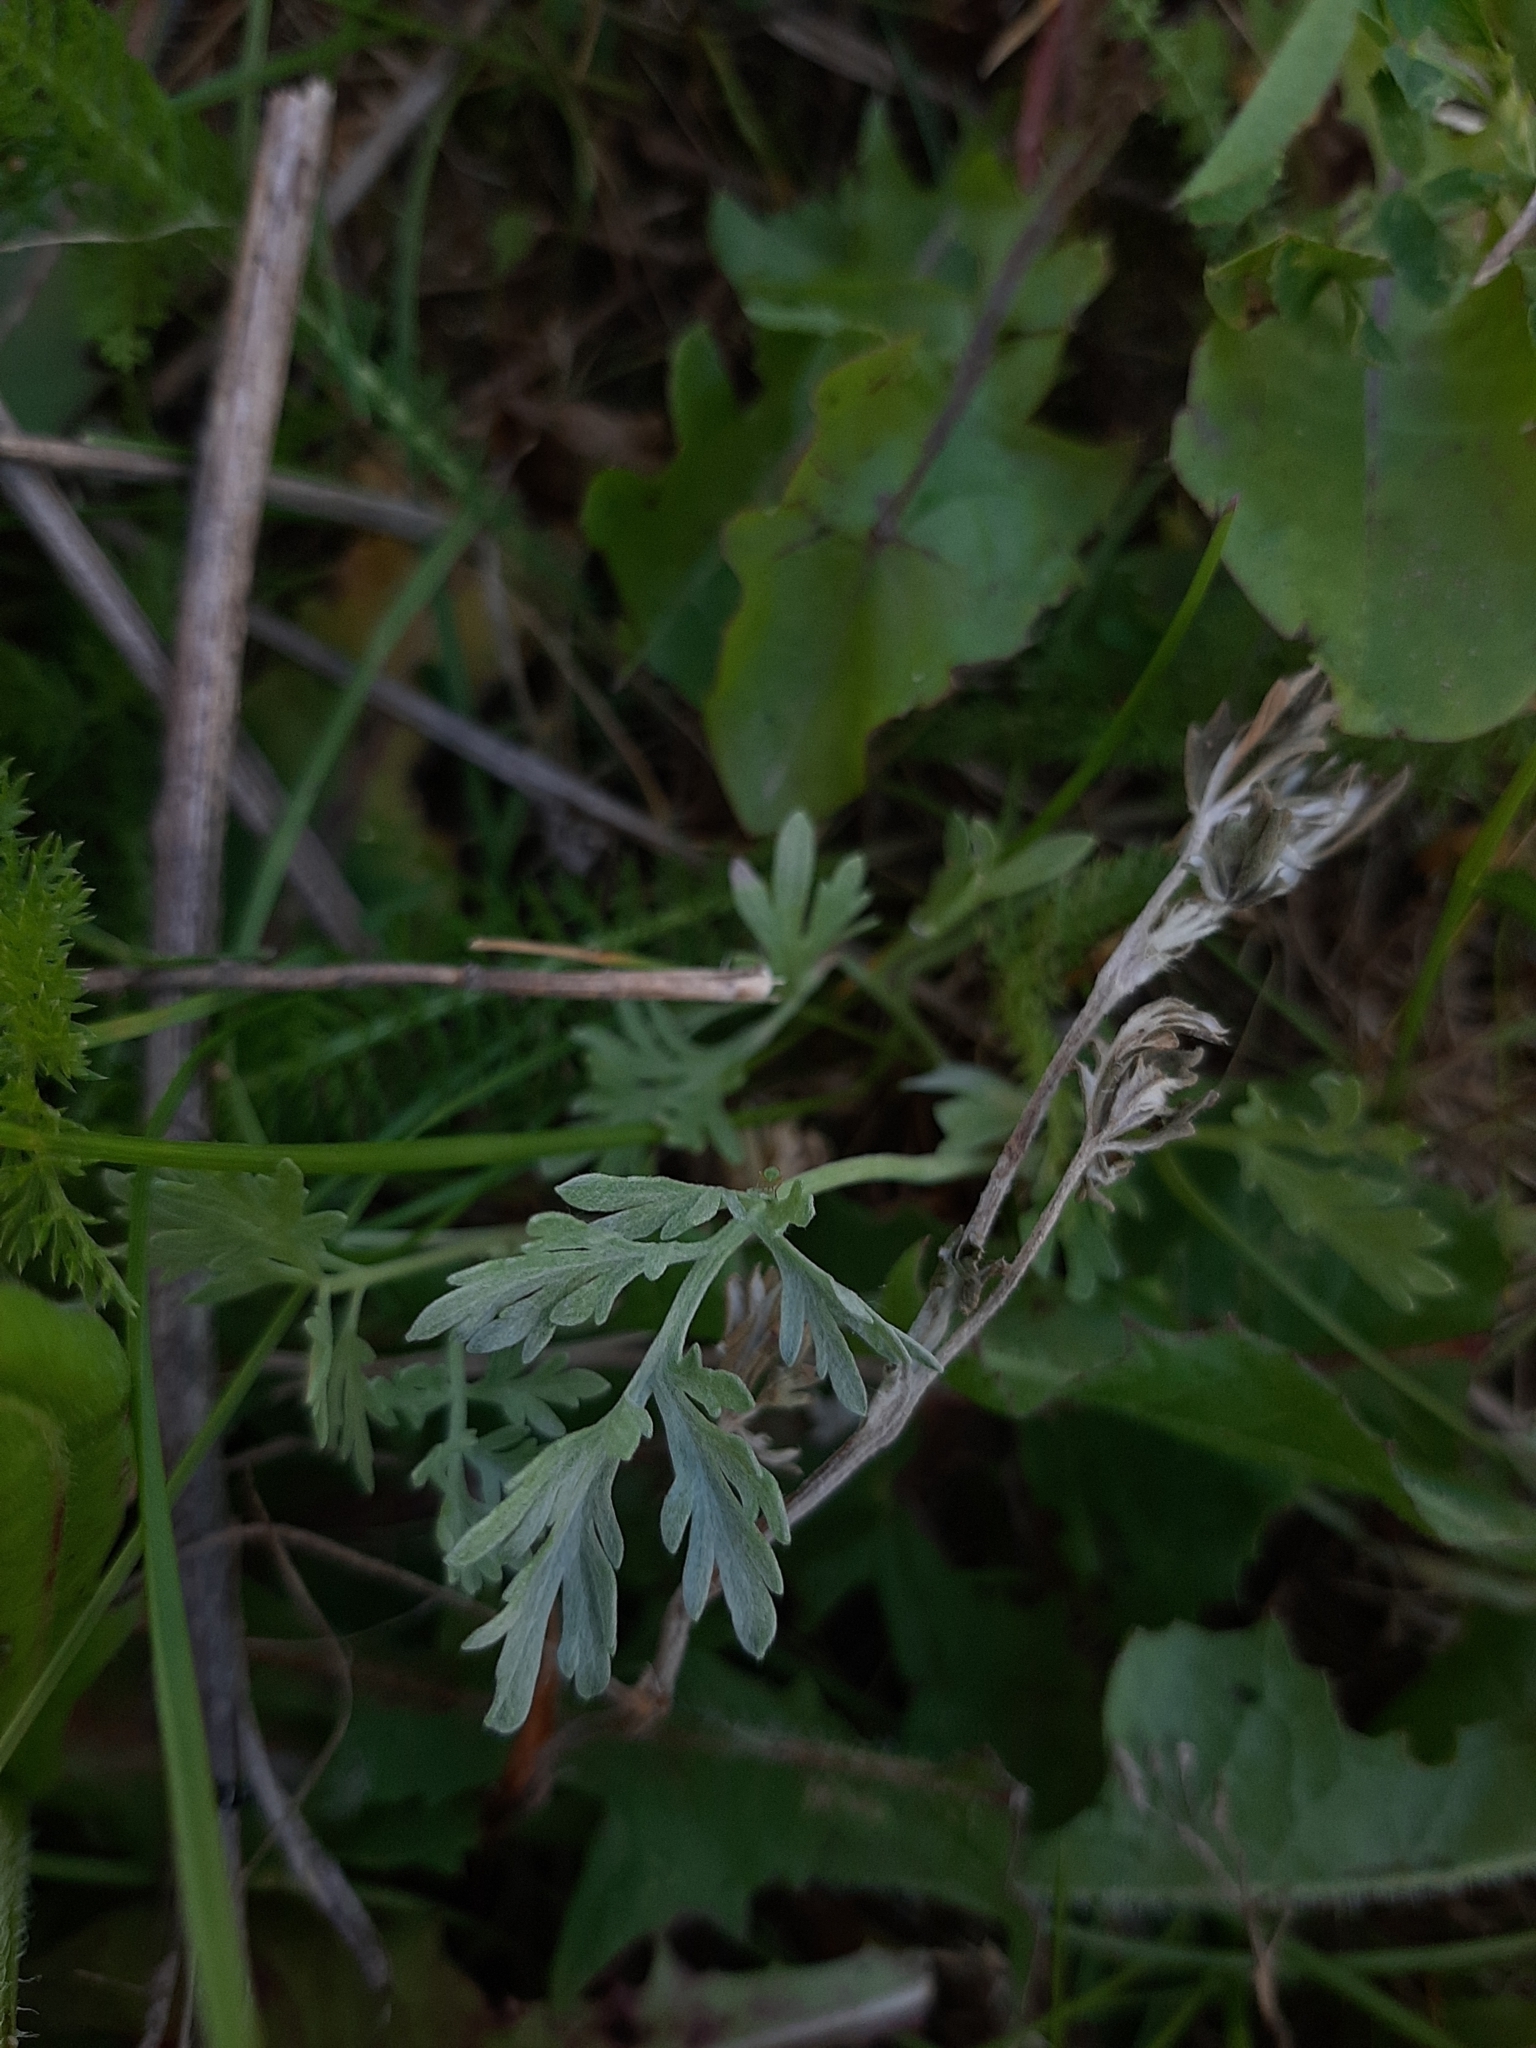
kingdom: Plantae
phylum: Tracheophyta
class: Magnoliopsida
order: Asterales
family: Asteraceae
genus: Artemisia
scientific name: Artemisia absinthium
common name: Wormwood
